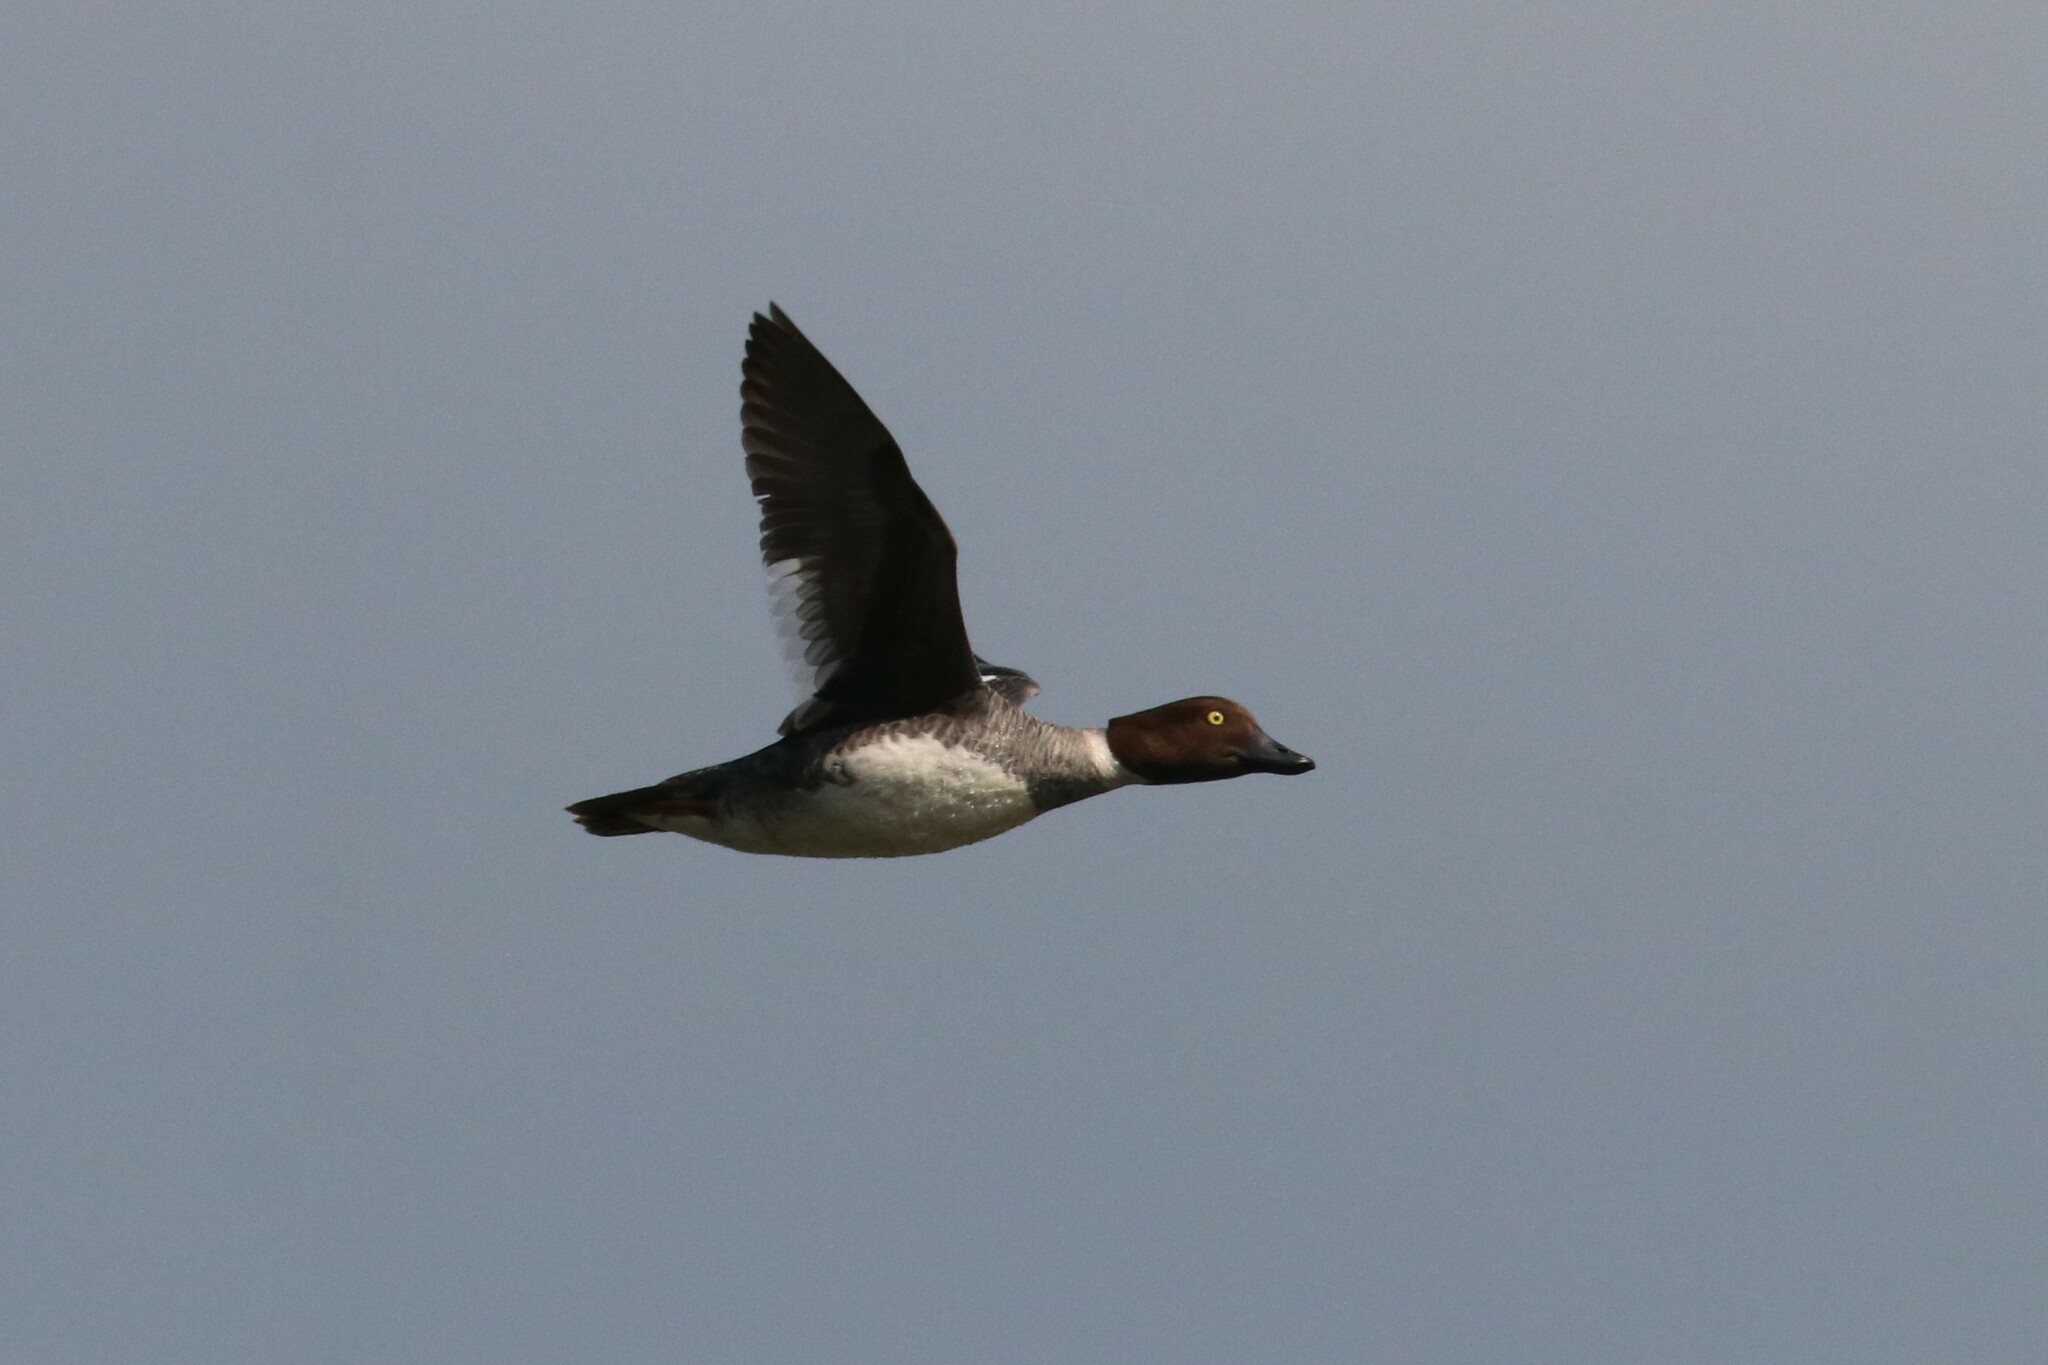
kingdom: Animalia
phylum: Chordata
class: Aves
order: Anseriformes
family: Anatidae
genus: Bucephala
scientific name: Bucephala clangula
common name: Common goldeneye
